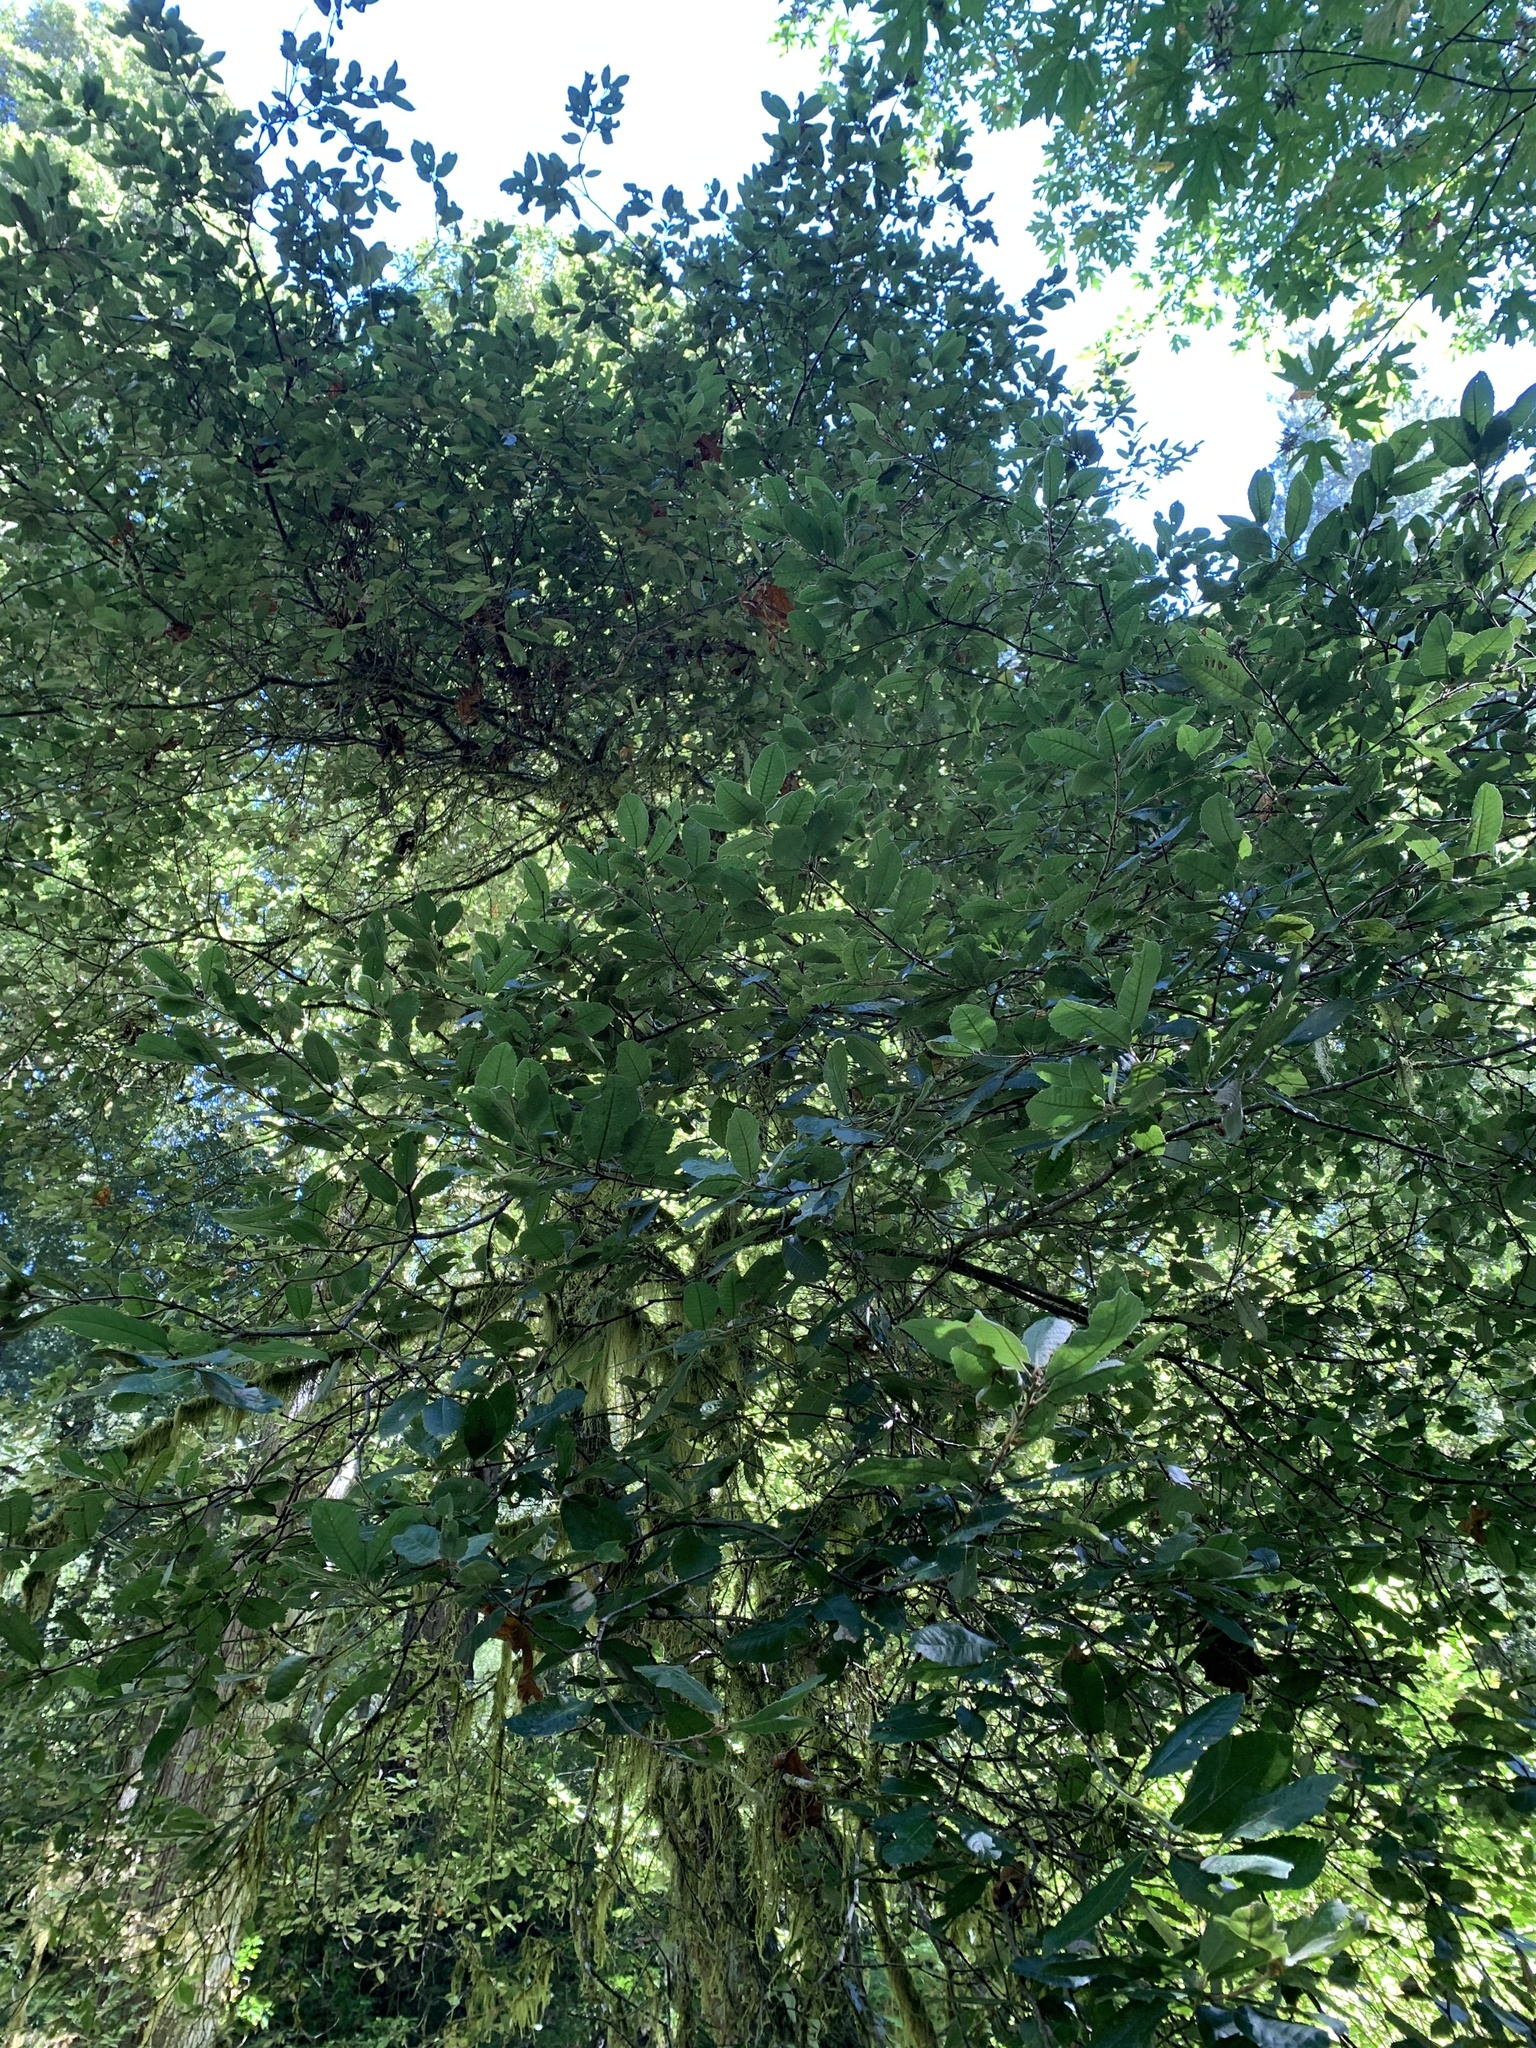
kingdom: Plantae
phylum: Tracheophyta
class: Magnoliopsida
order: Fagales
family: Fagaceae
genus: Notholithocarpus
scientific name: Notholithocarpus densiflorus
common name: Tan bark oak
